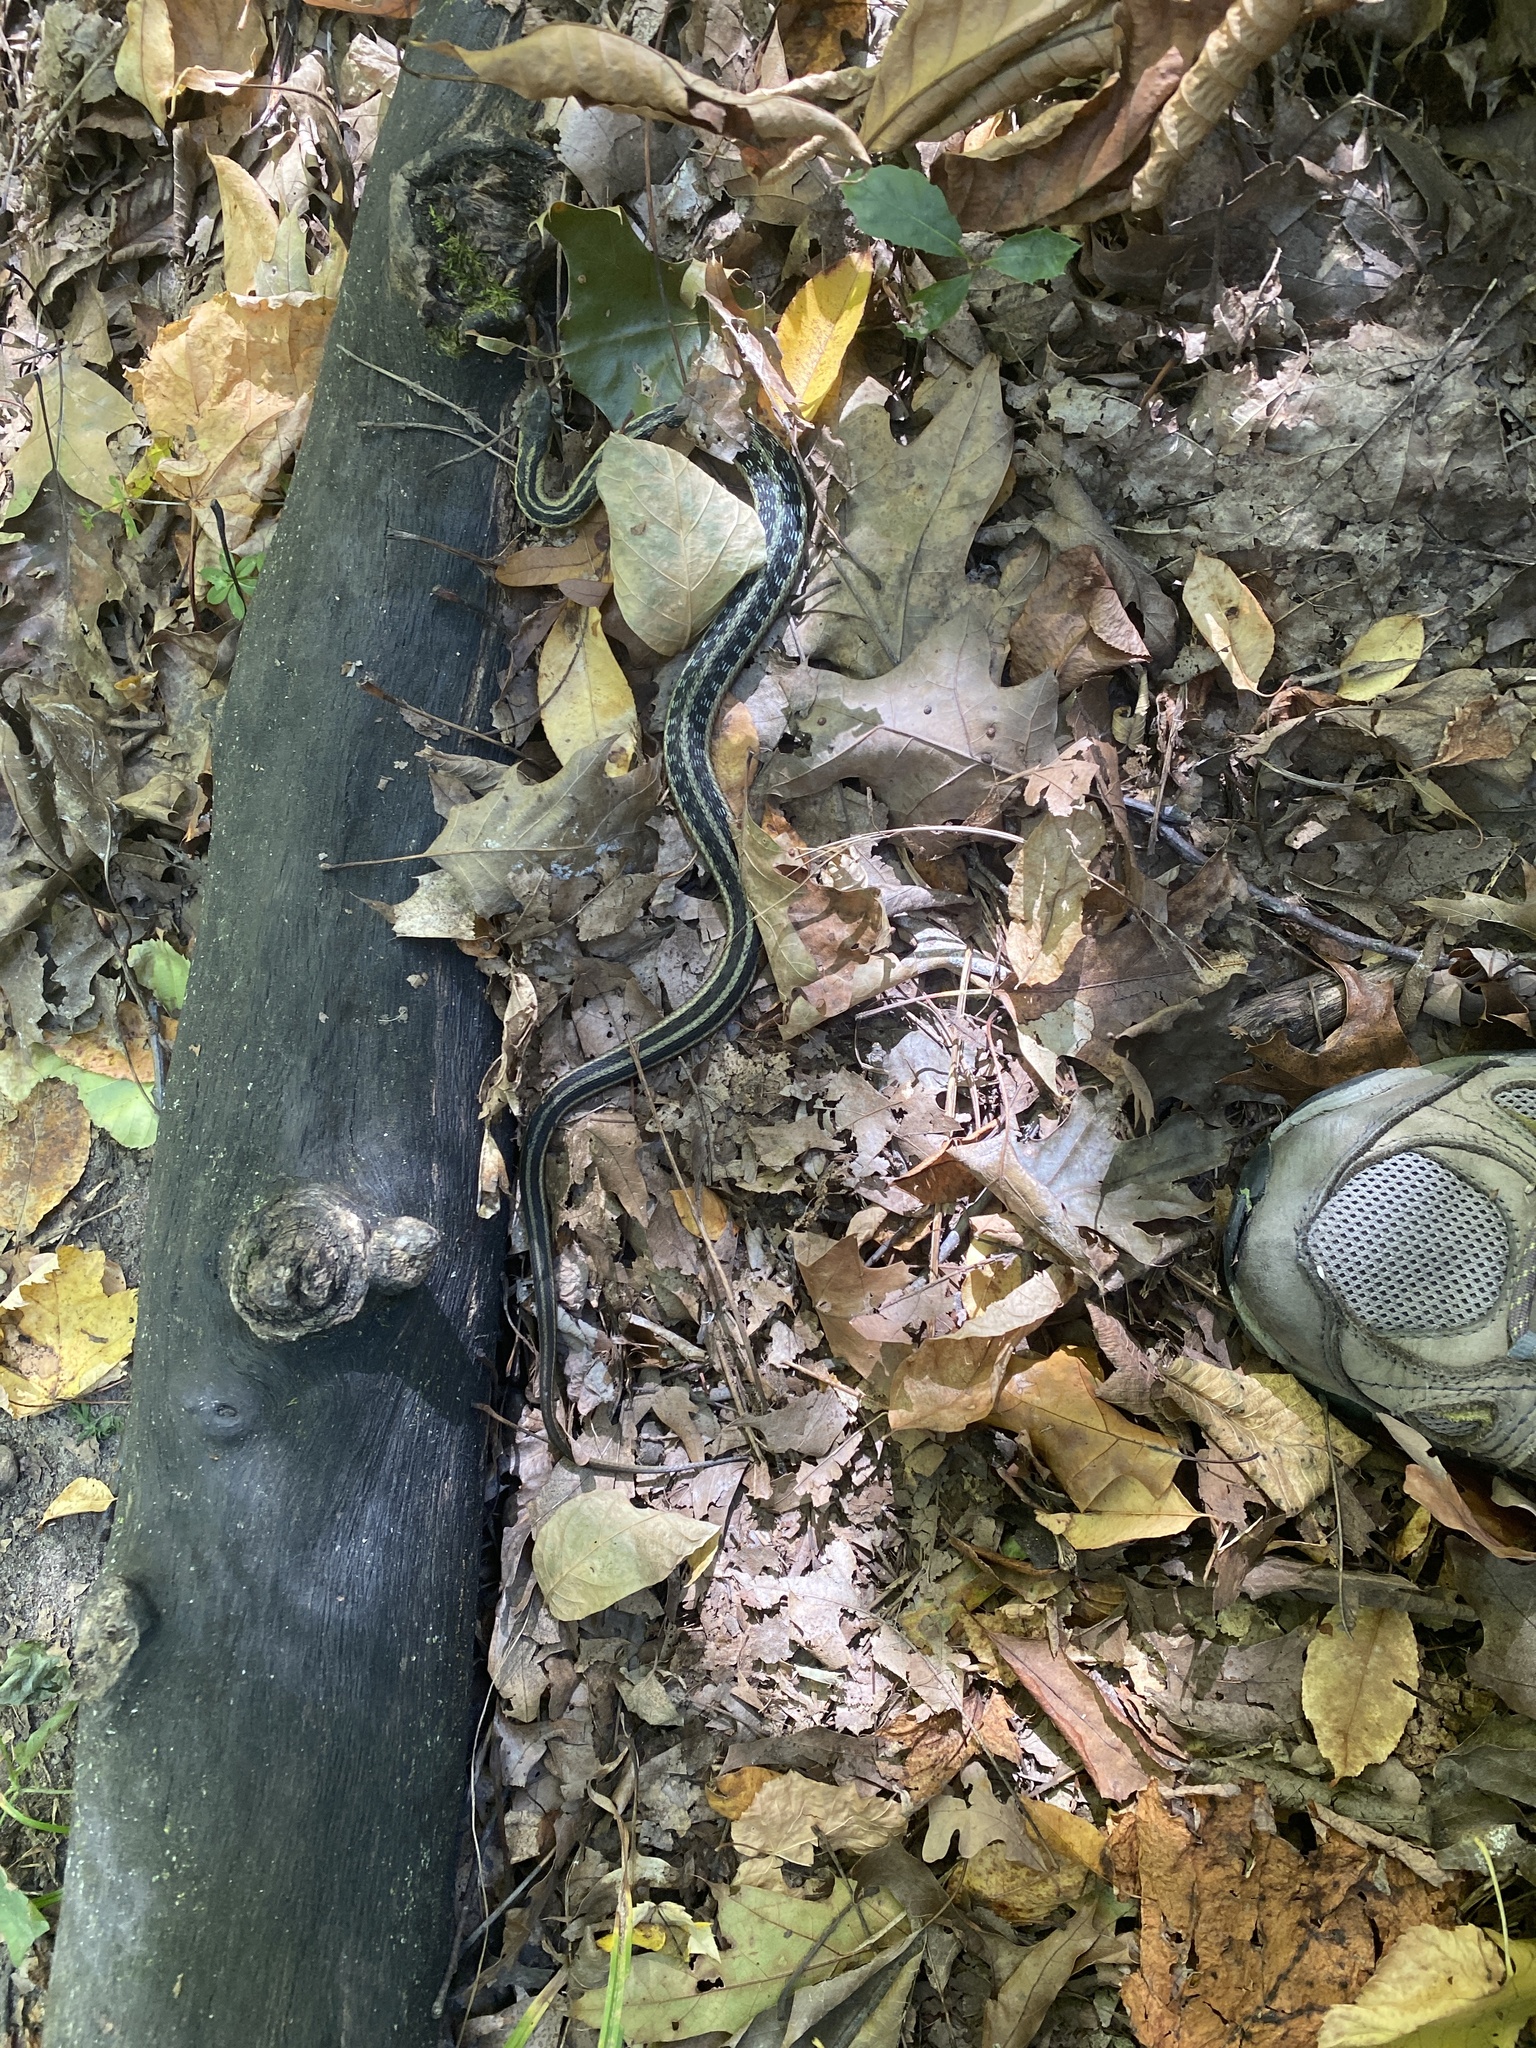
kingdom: Animalia
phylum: Chordata
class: Squamata
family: Colubridae
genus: Thamnophis
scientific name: Thamnophis sirtalis
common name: Common garter snake
